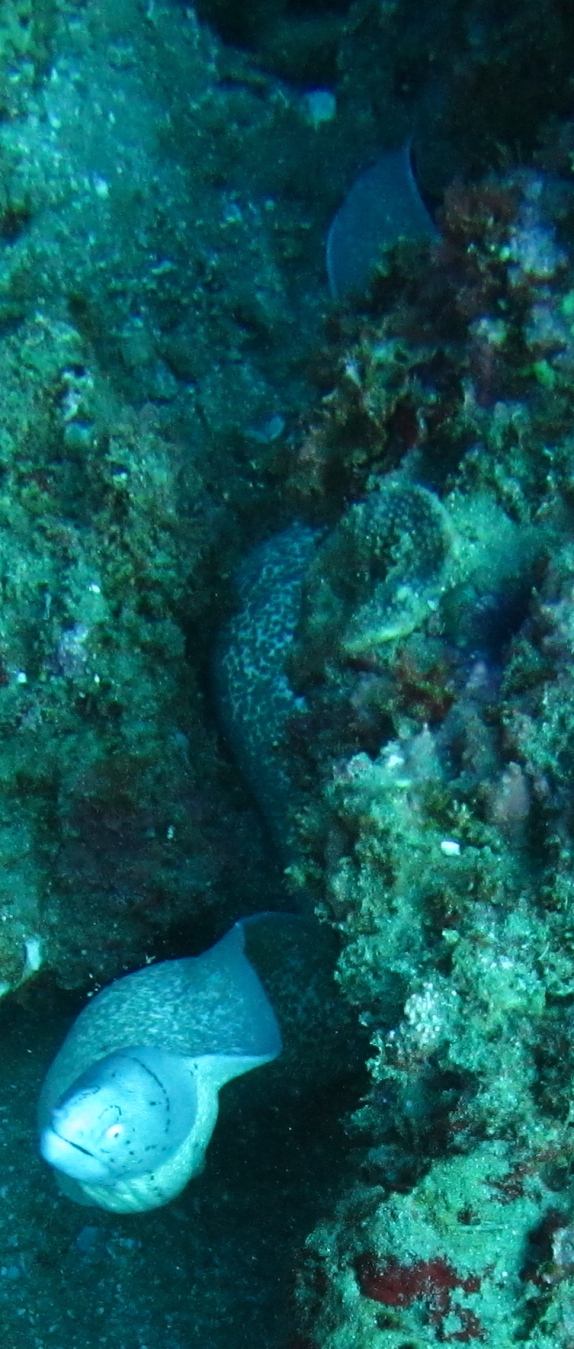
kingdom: Animalia
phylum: Chordata
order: Anguilliformes
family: Muraenidae
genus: Gymnothorax
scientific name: Gymnothorax griseus
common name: Geometric moray
